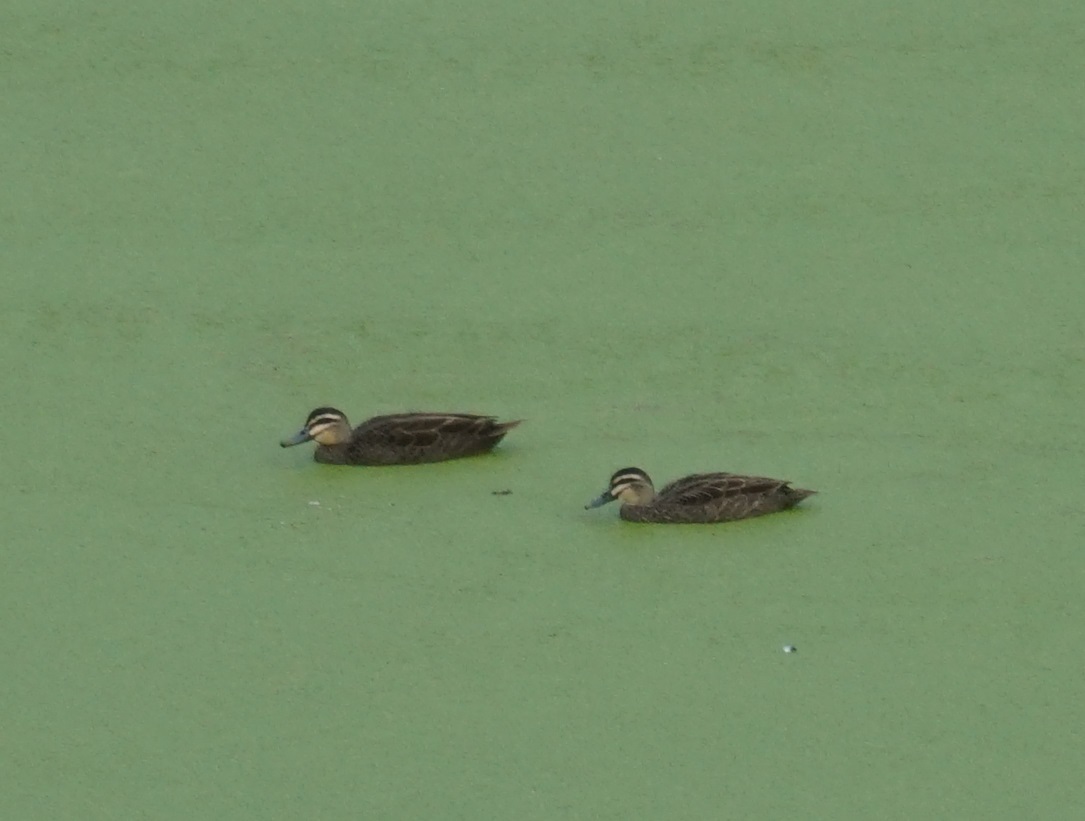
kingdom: Animalia
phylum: Chordata
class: Aves
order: Anseriformes
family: Anatidae
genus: Anas
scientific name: Anas superciliosa
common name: Pacific black duck
